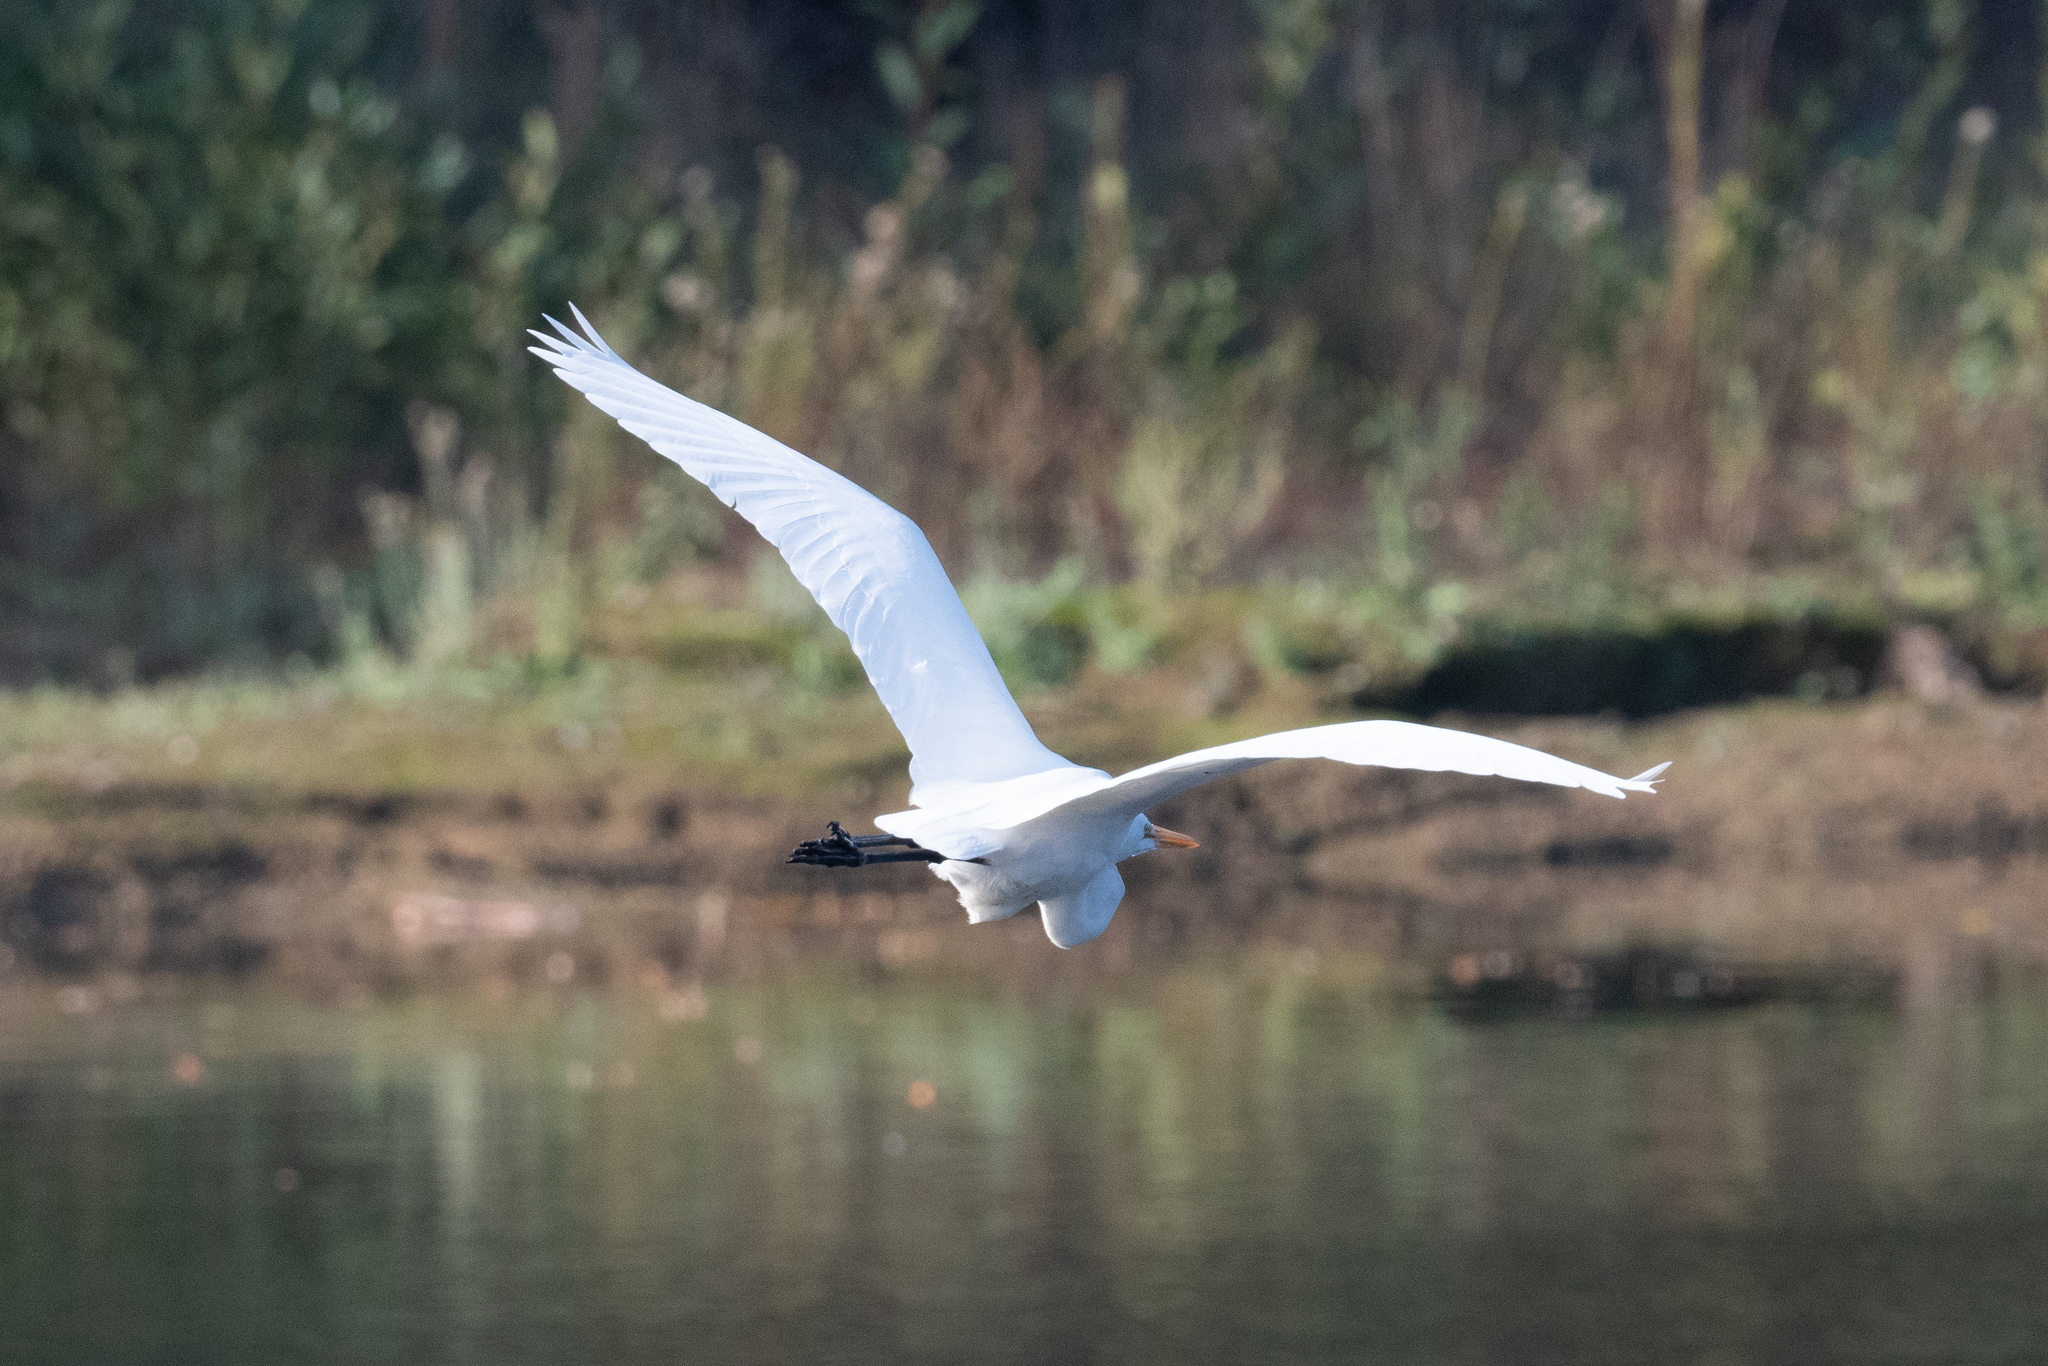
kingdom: Animalia
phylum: Chordata
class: Aves
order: Pelecaniformes
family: Ardeidae
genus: Ardea
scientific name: Ardea alba
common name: Great egret
